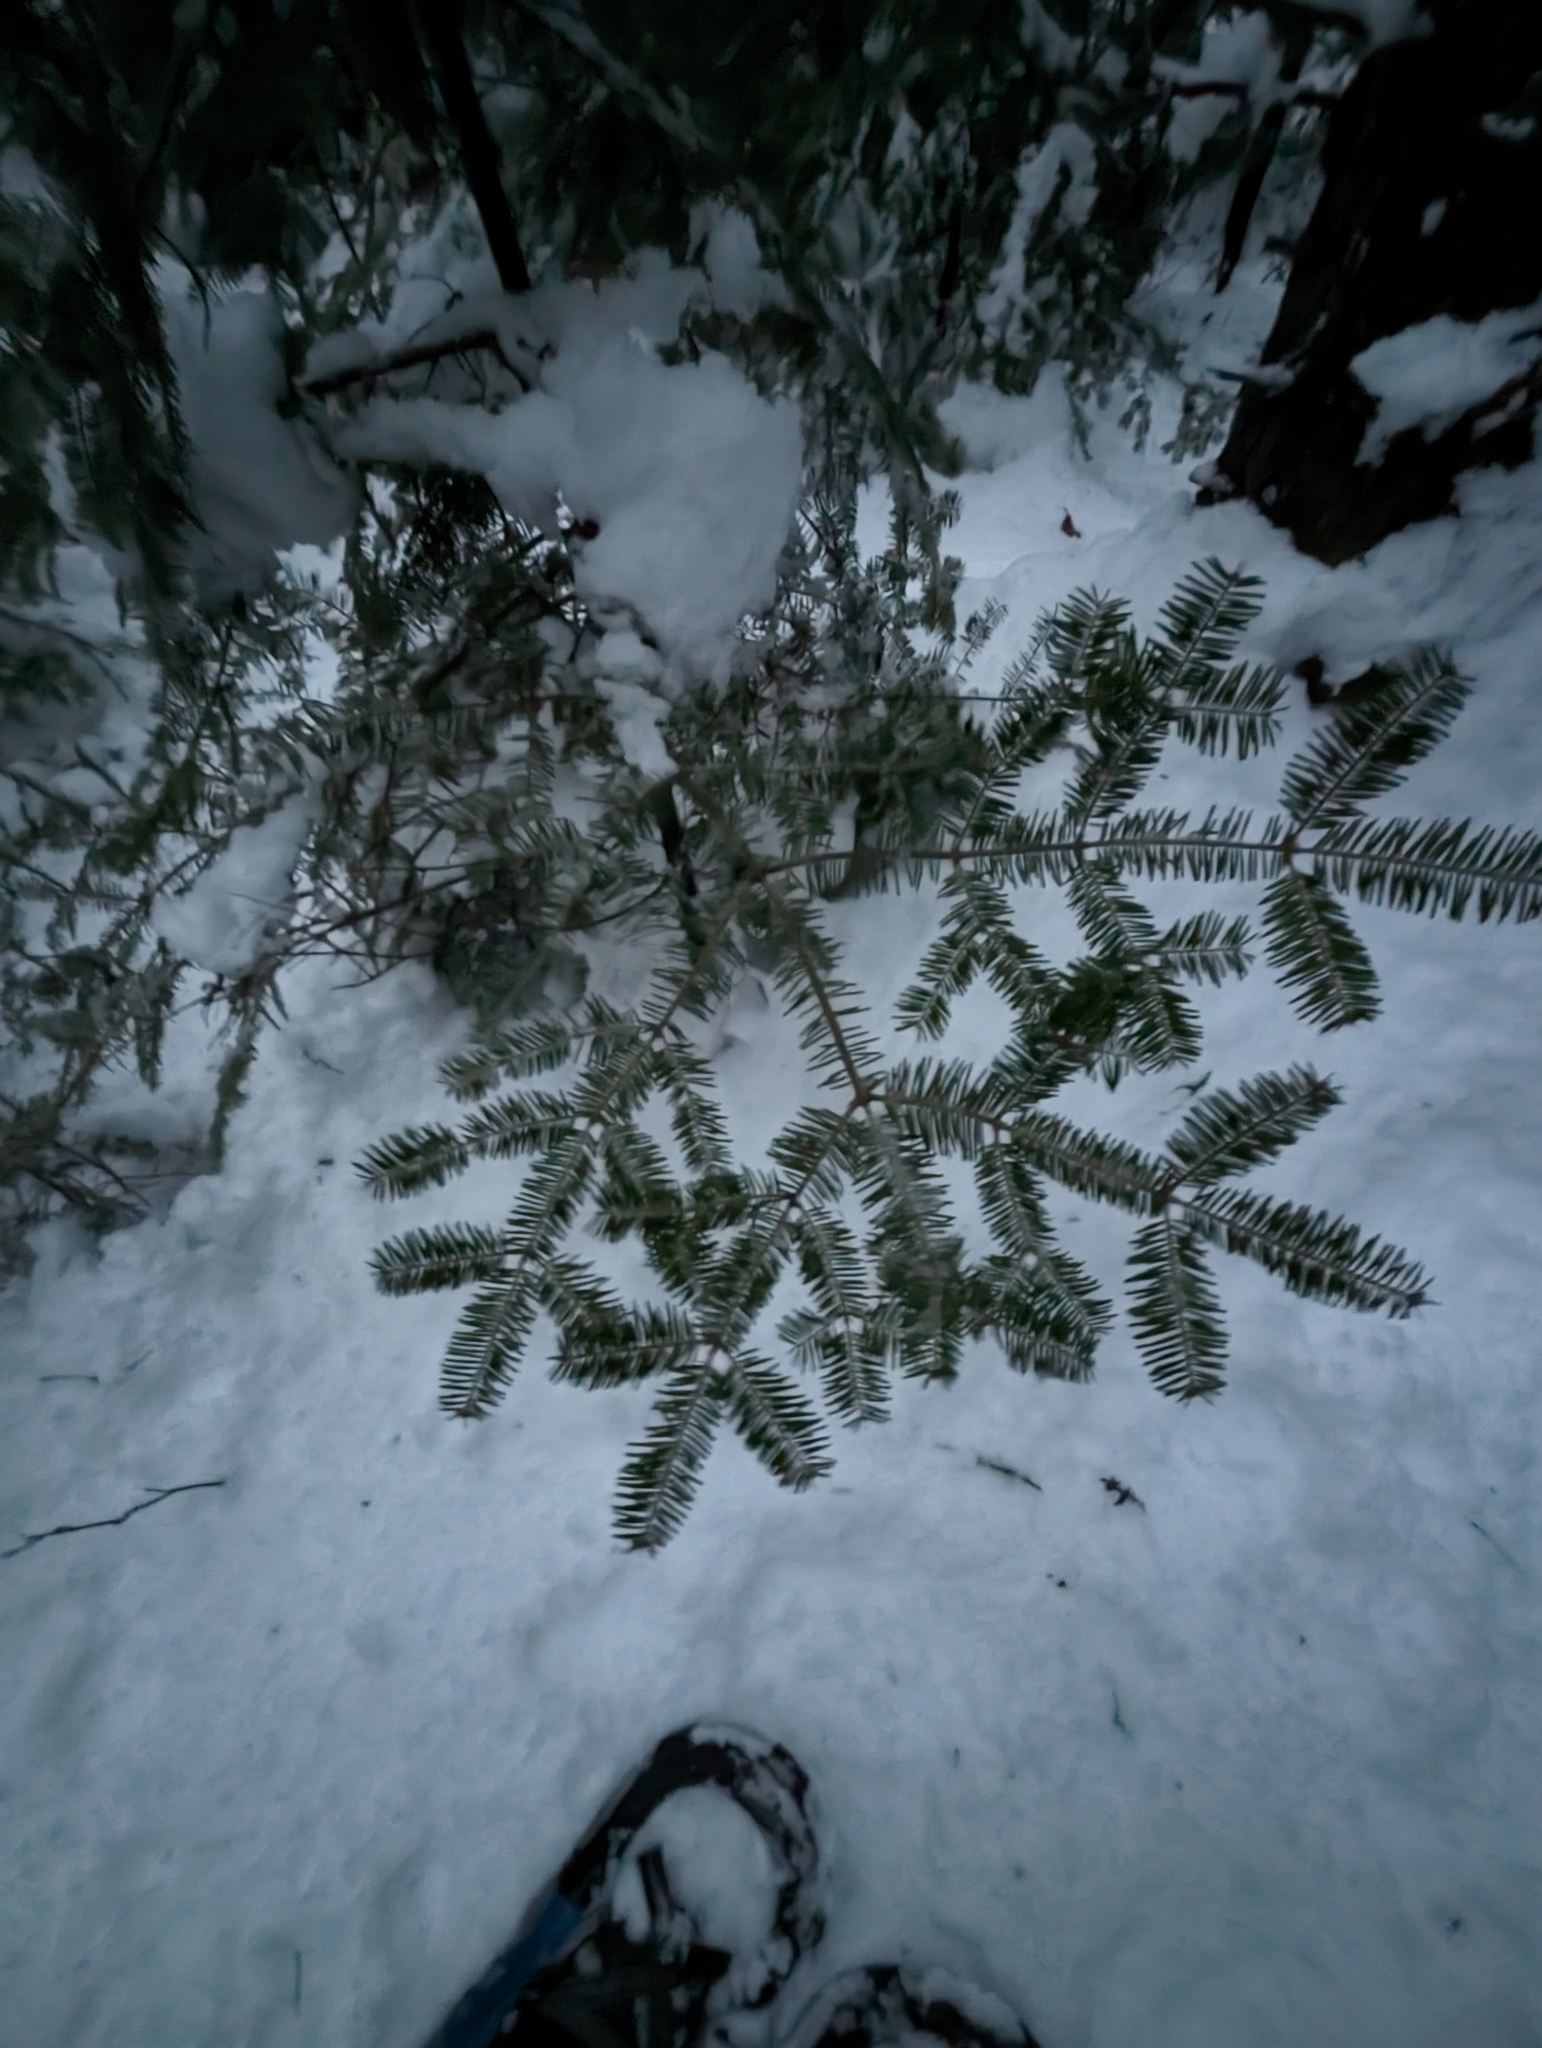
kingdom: Plantae
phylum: Tracheophyta
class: Pinopsida
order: Pinales
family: Pinaceae
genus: Abies
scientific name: Abies balsamea
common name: Balsam fir
